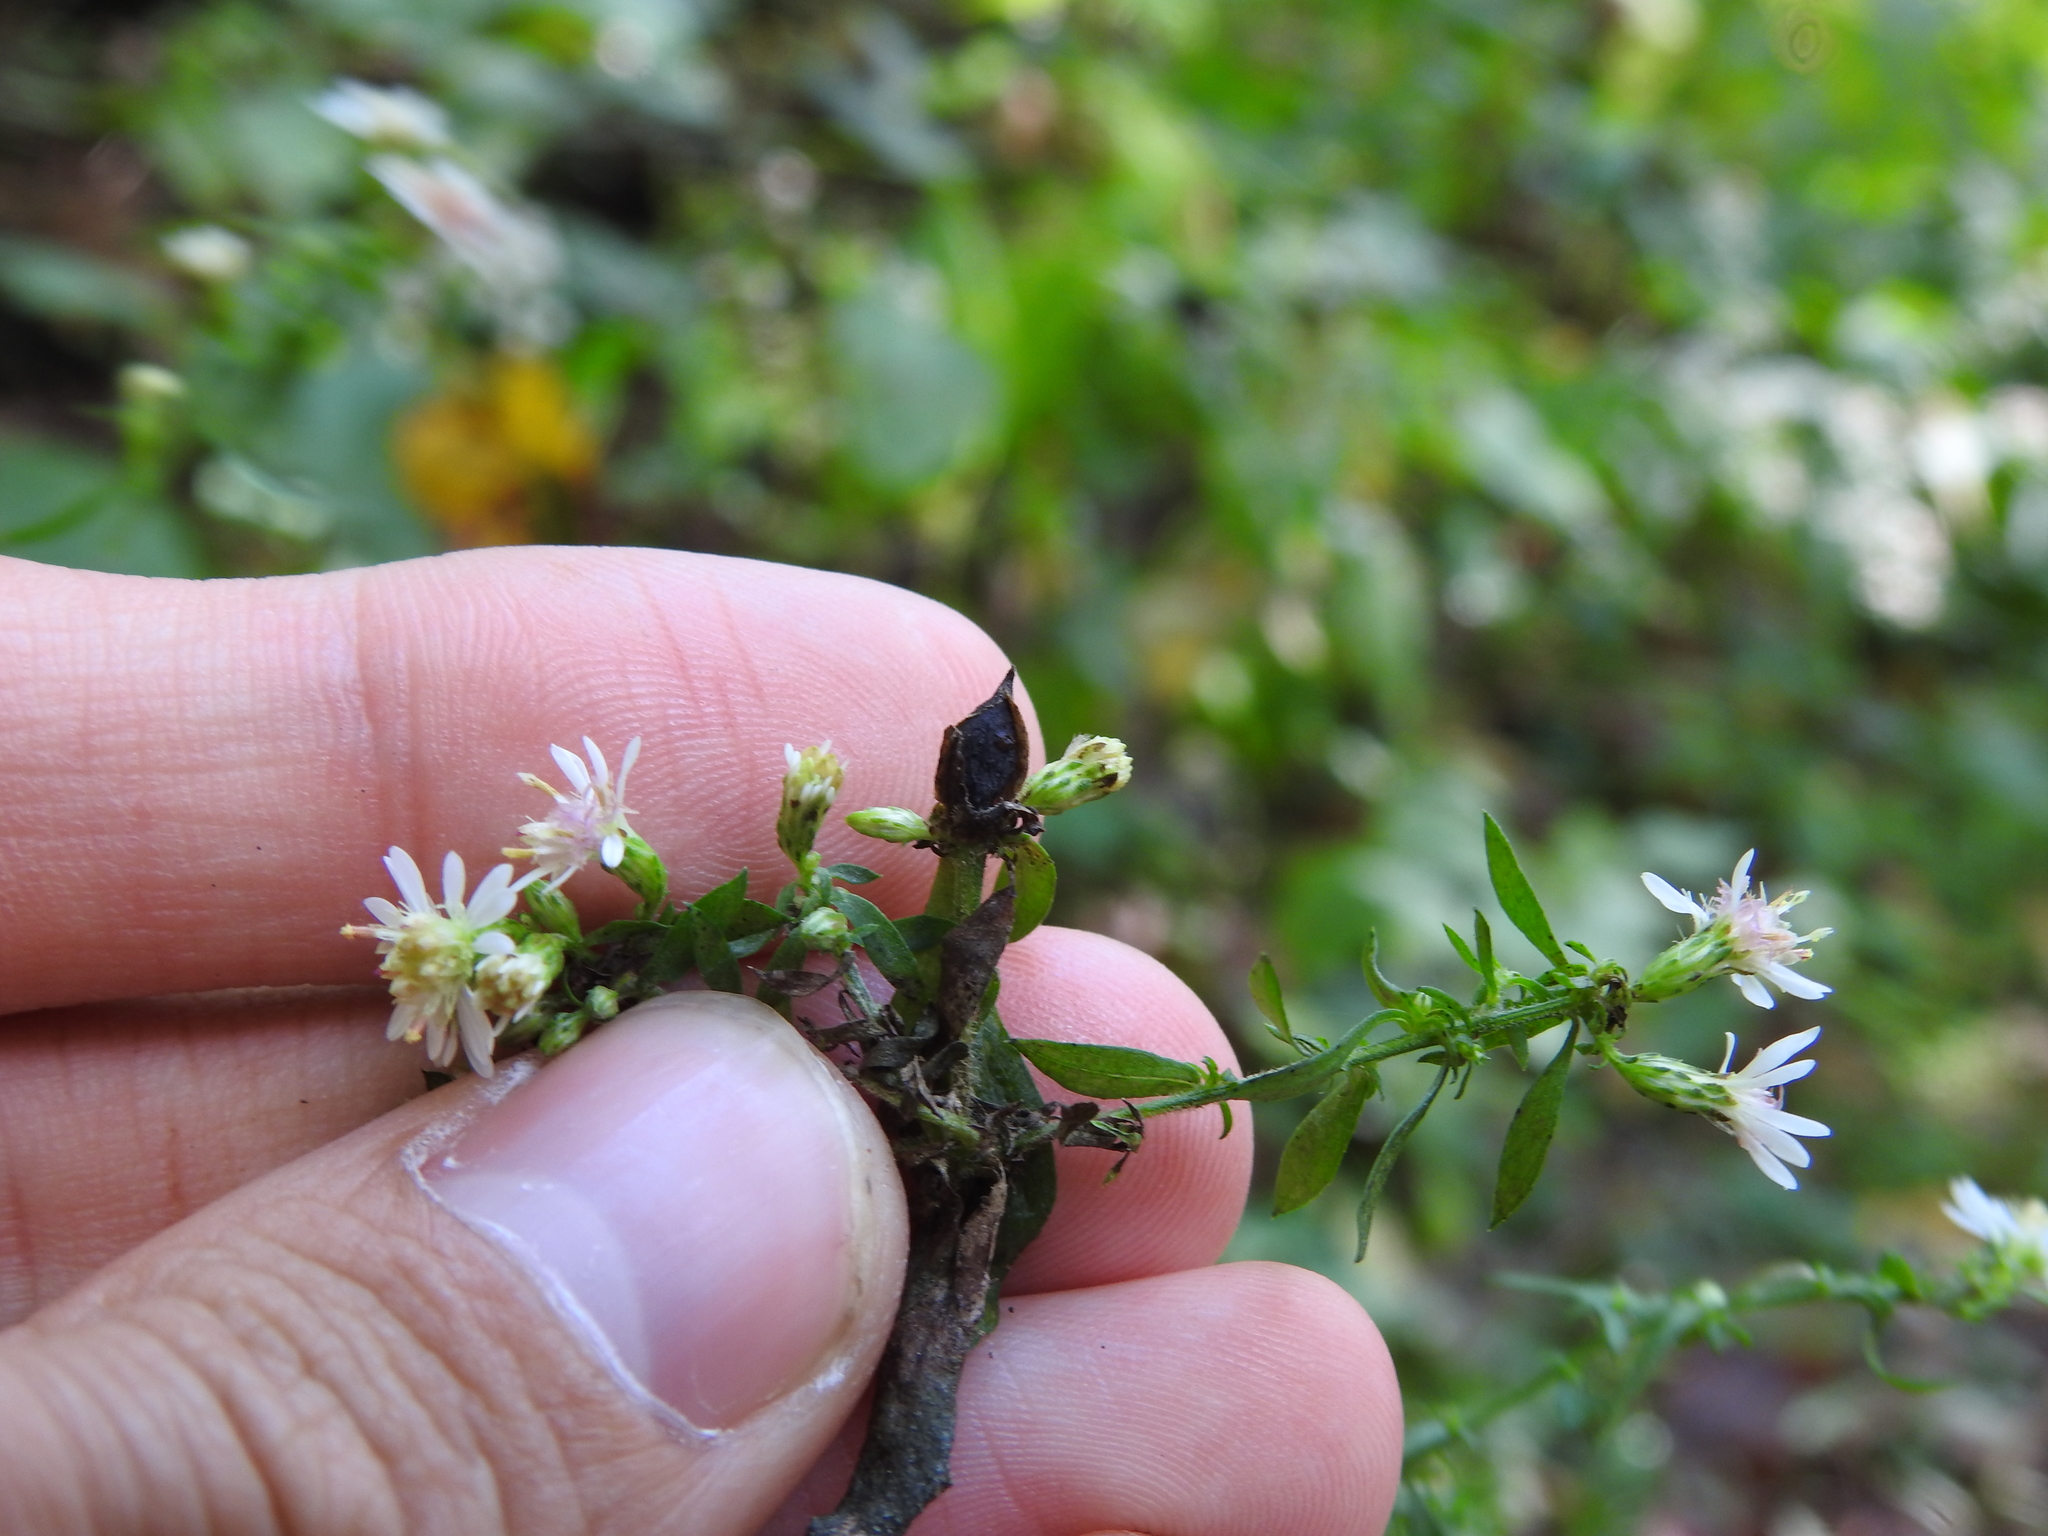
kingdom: Animalia
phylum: Arthropoda
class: Insecta
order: Diptera
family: Cecidomyiidae
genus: Asphondylia
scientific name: Asphondylia imbricata
